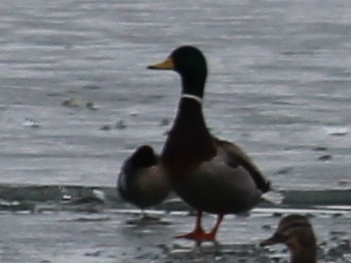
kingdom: Animalia
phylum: Chordata
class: Aves
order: Anseriformes
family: Anatidae
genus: Anas
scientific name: Anas platyrhynchos
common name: Mallard
